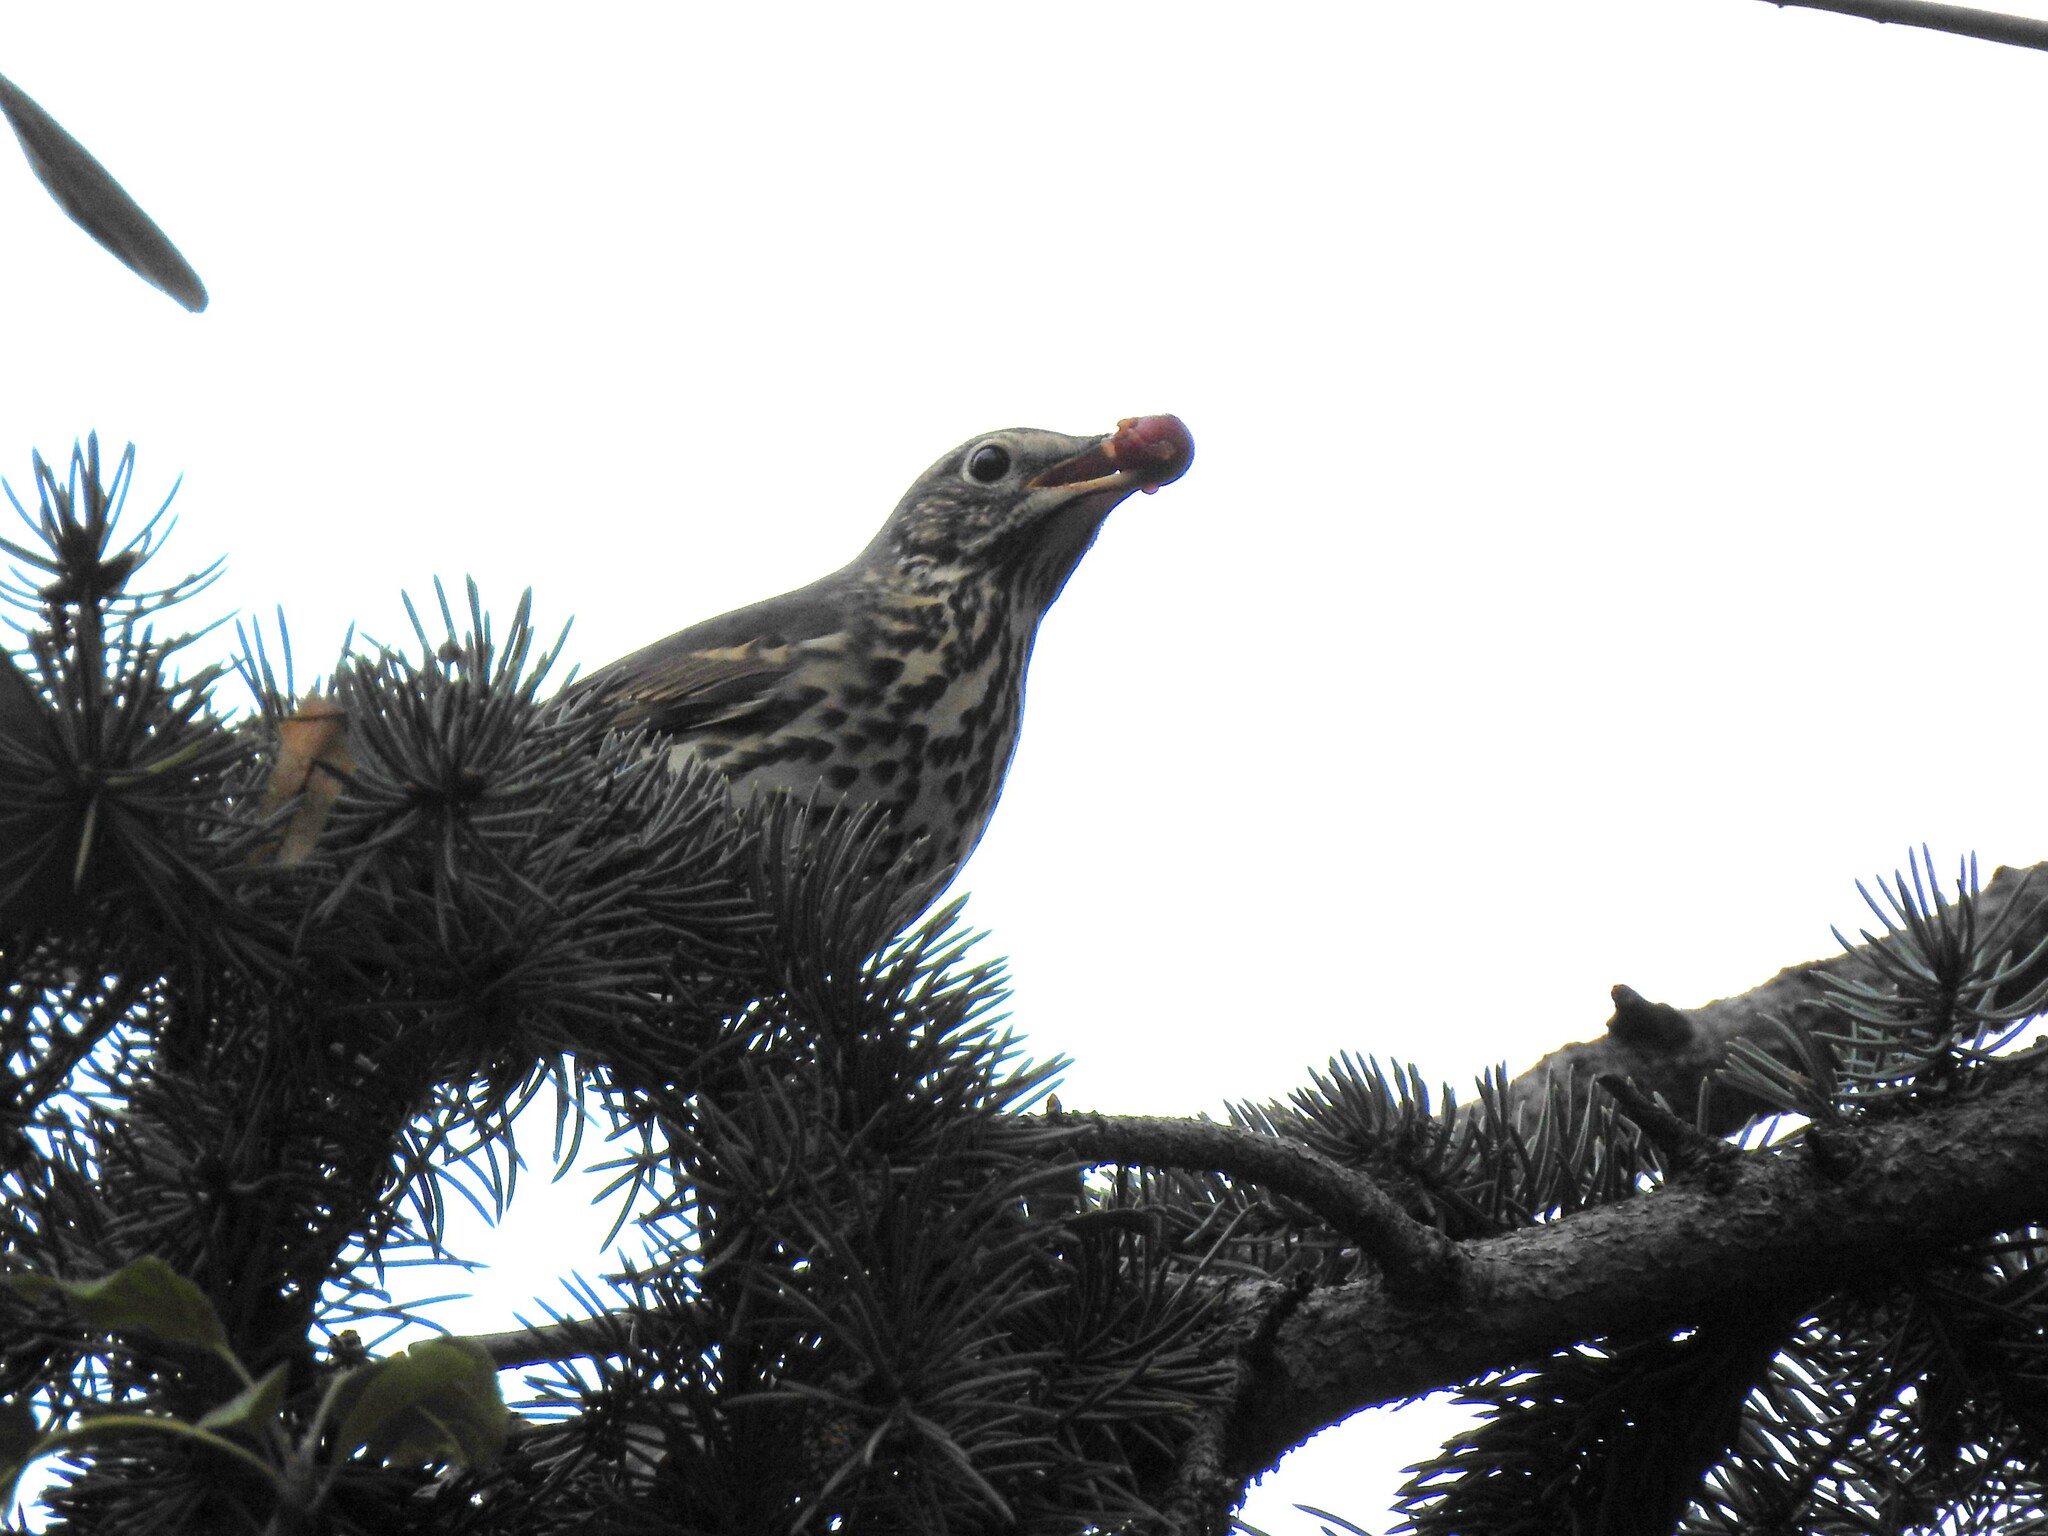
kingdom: Animalia
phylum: Chordata
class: Aves
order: Passeriformes
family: Turdidae
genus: Turdus
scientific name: Turdus philomelos
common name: Song thrush
